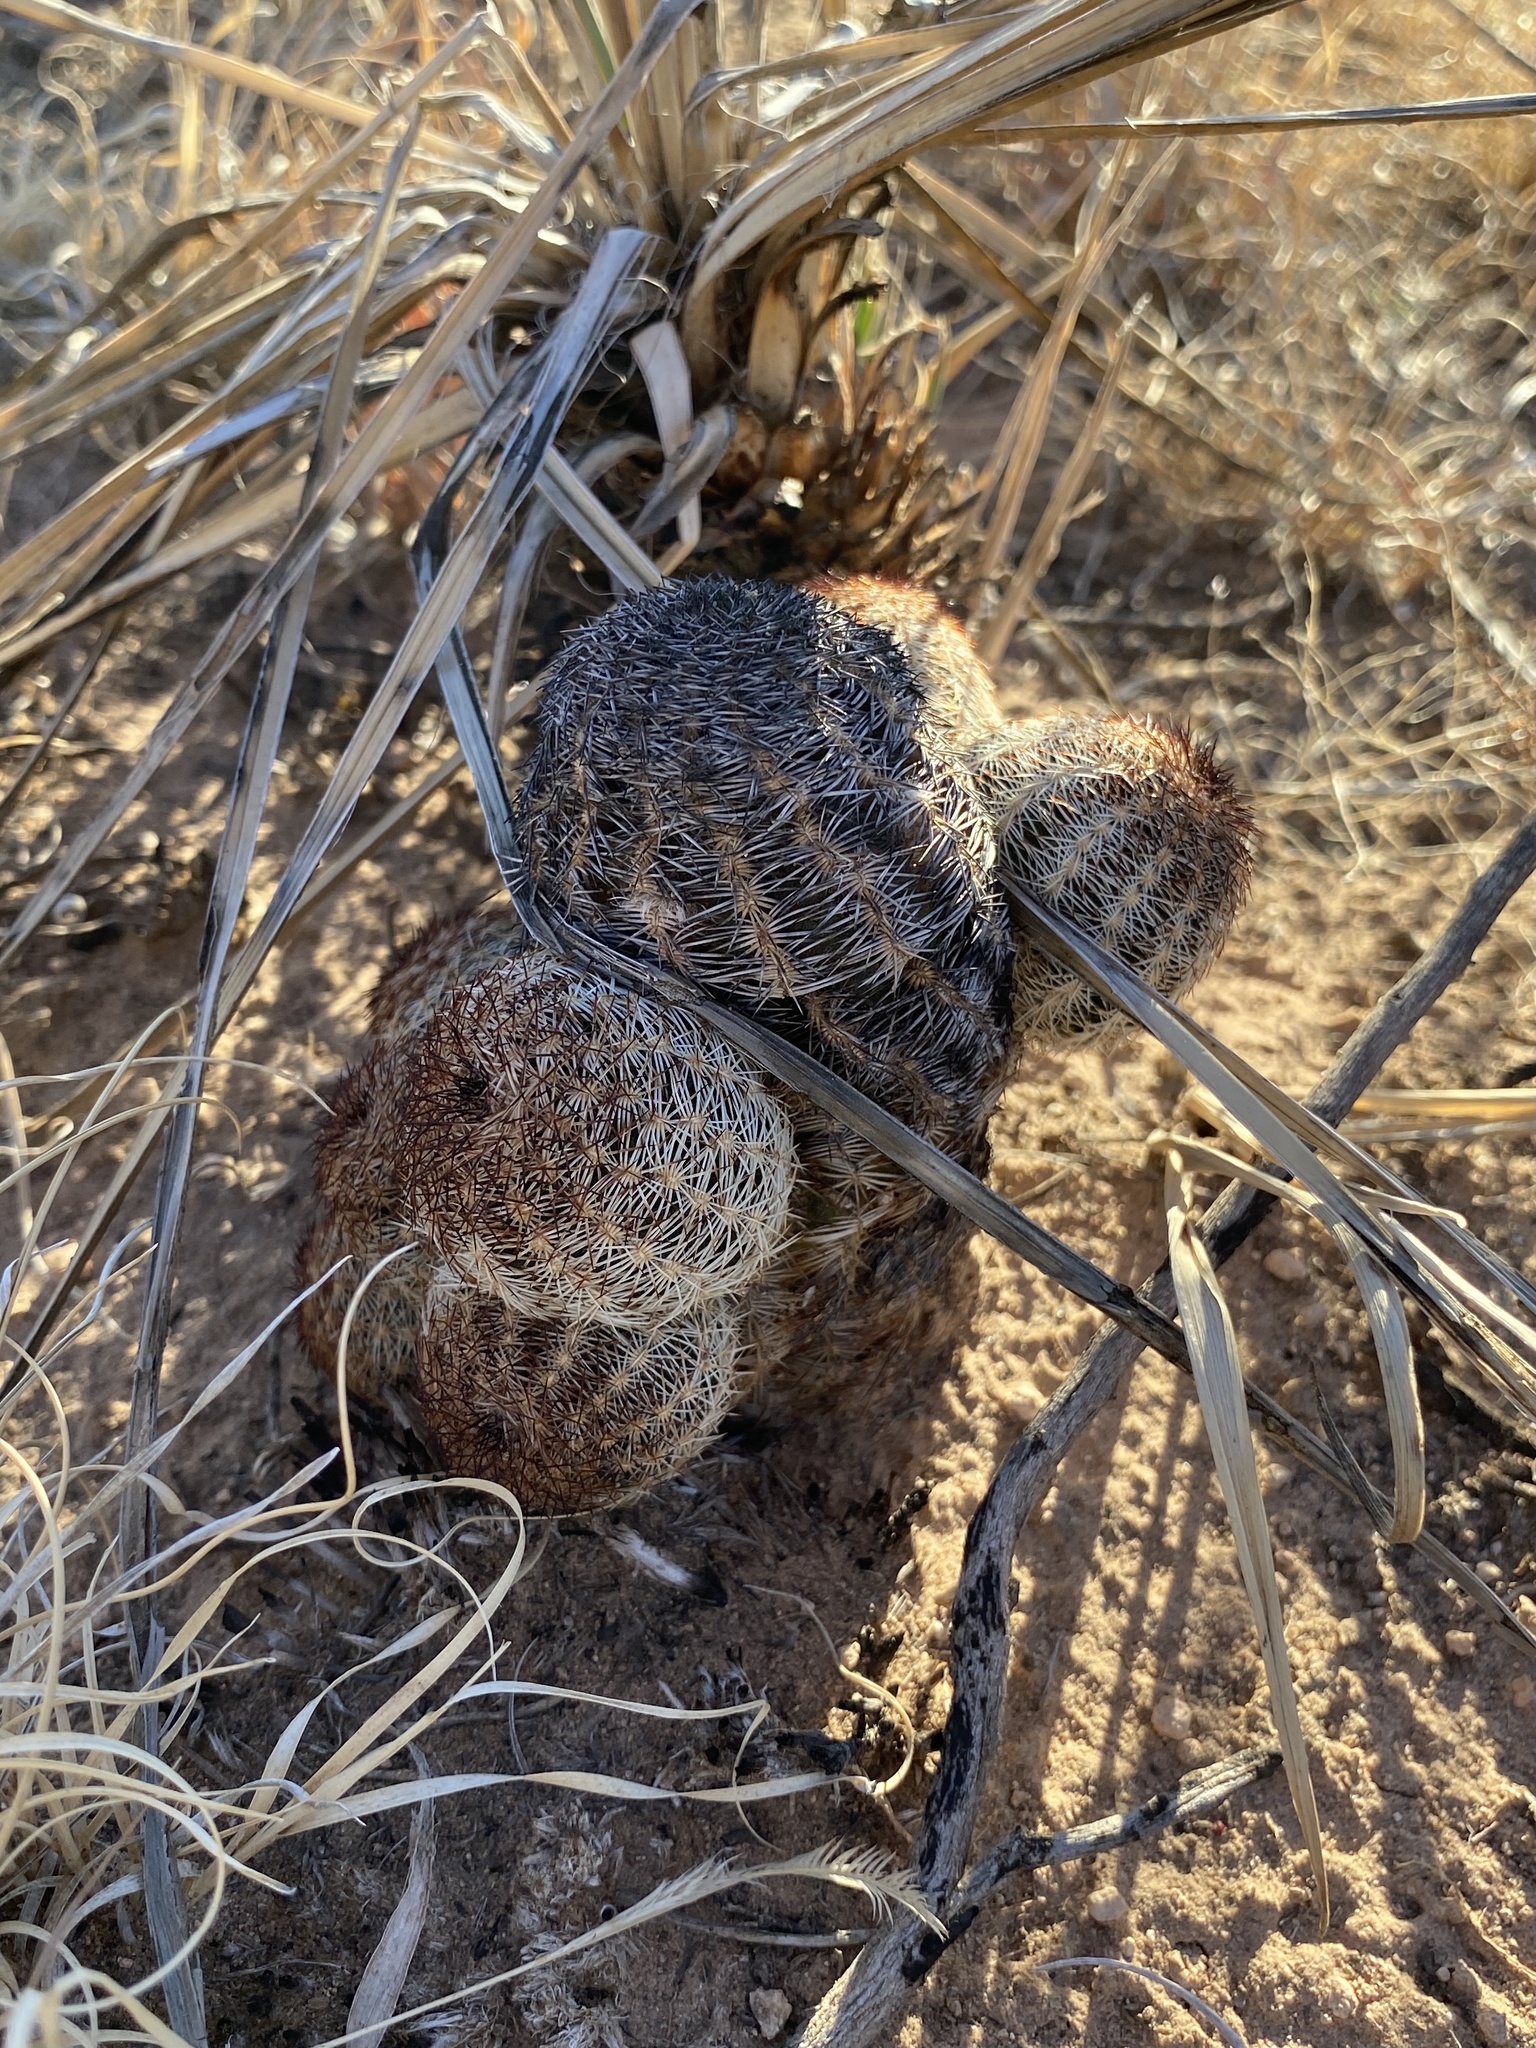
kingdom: Plantae
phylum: Tracheophyta
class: Magnoliopsida
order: Caryophyllales
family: Cactaceae
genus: Echinocereus
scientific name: Echinocereus reichenbachii
